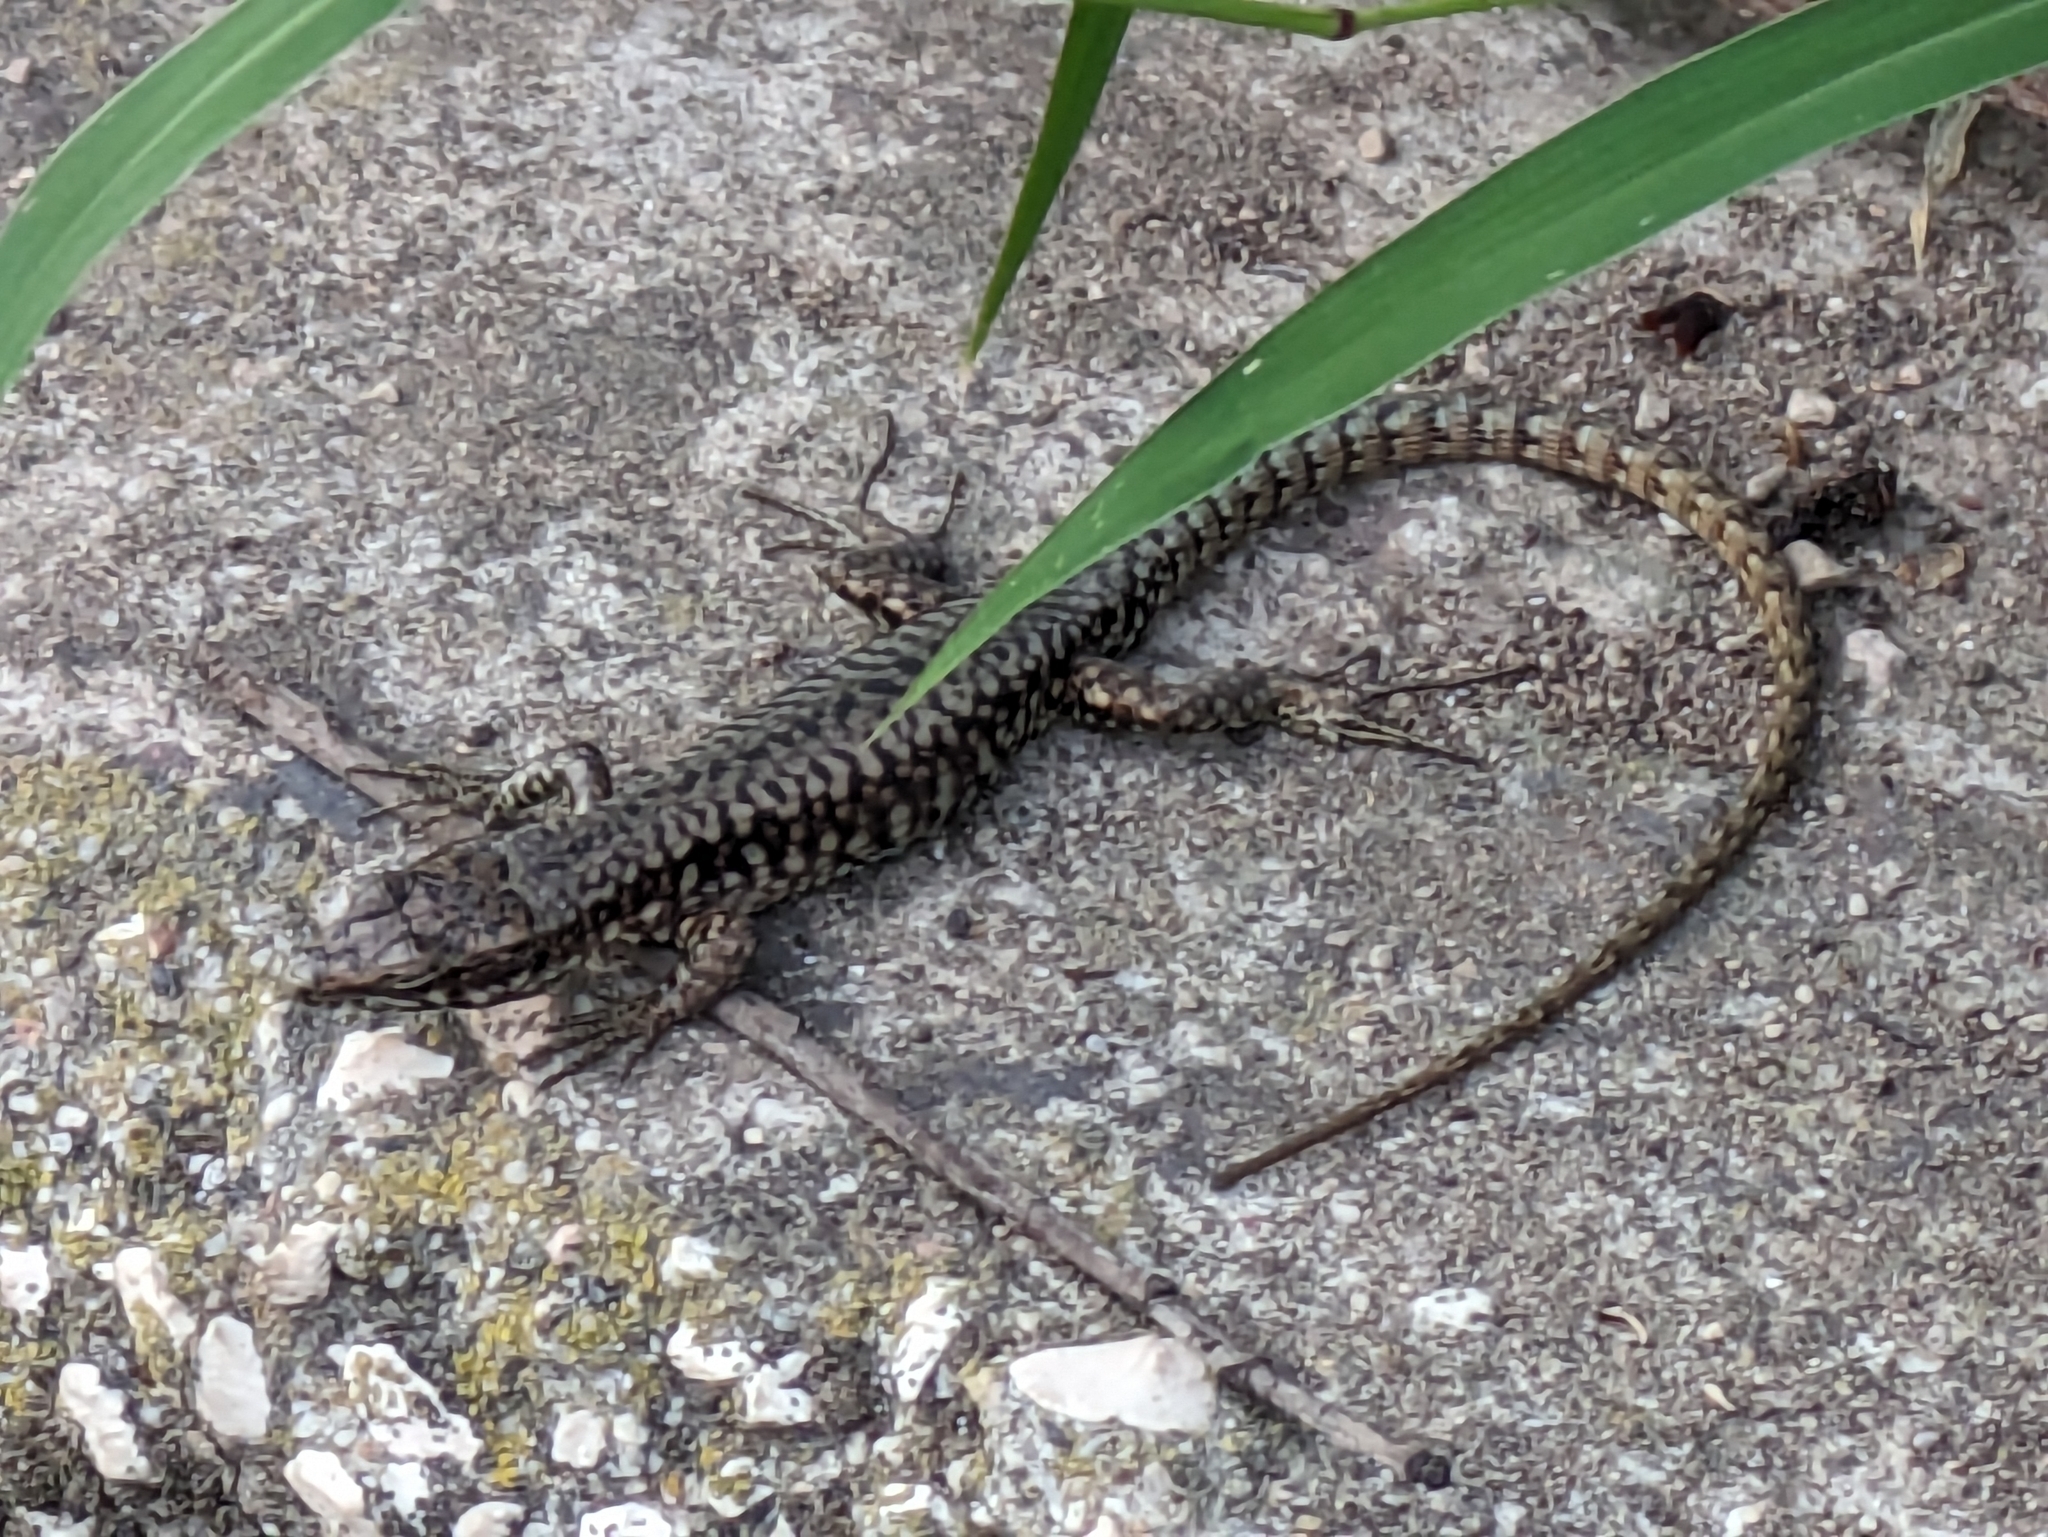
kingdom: Animalia
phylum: Chordata
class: Squamata
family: Lacertidae
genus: Podarcis
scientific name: Podarcis muralis
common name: Common wall lizard
